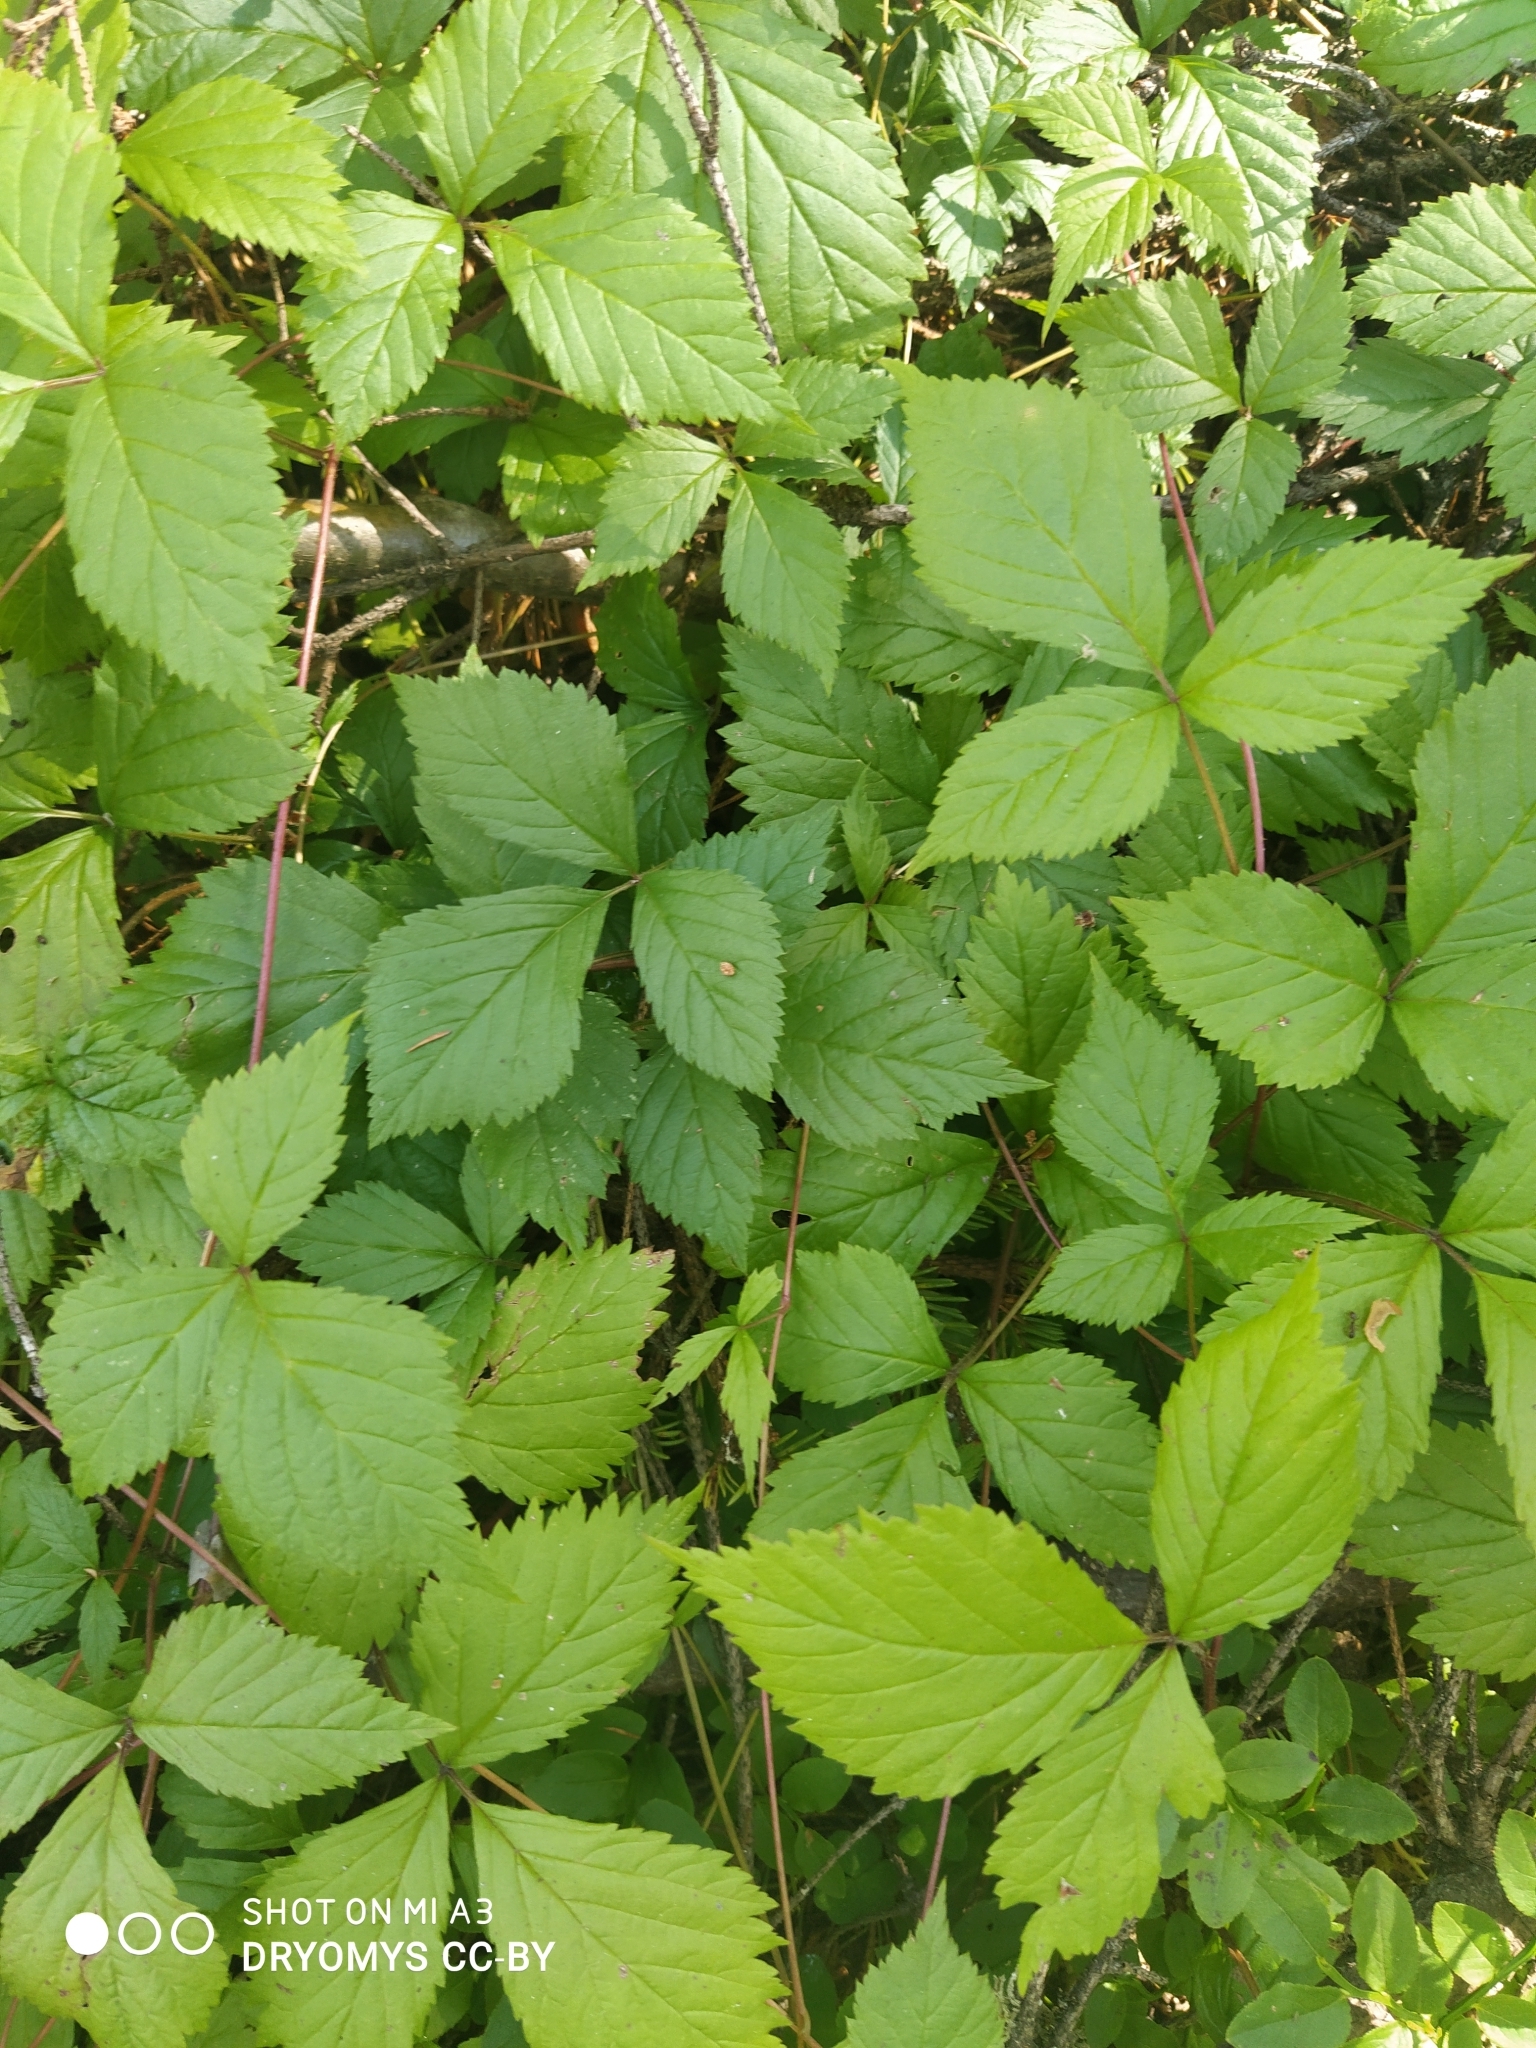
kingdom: Plantae
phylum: Tracheophyta
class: Magnoliopsida
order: Rosales
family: Rosaceae
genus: Rubus
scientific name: Rubus saxatilis
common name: Stone bramble
